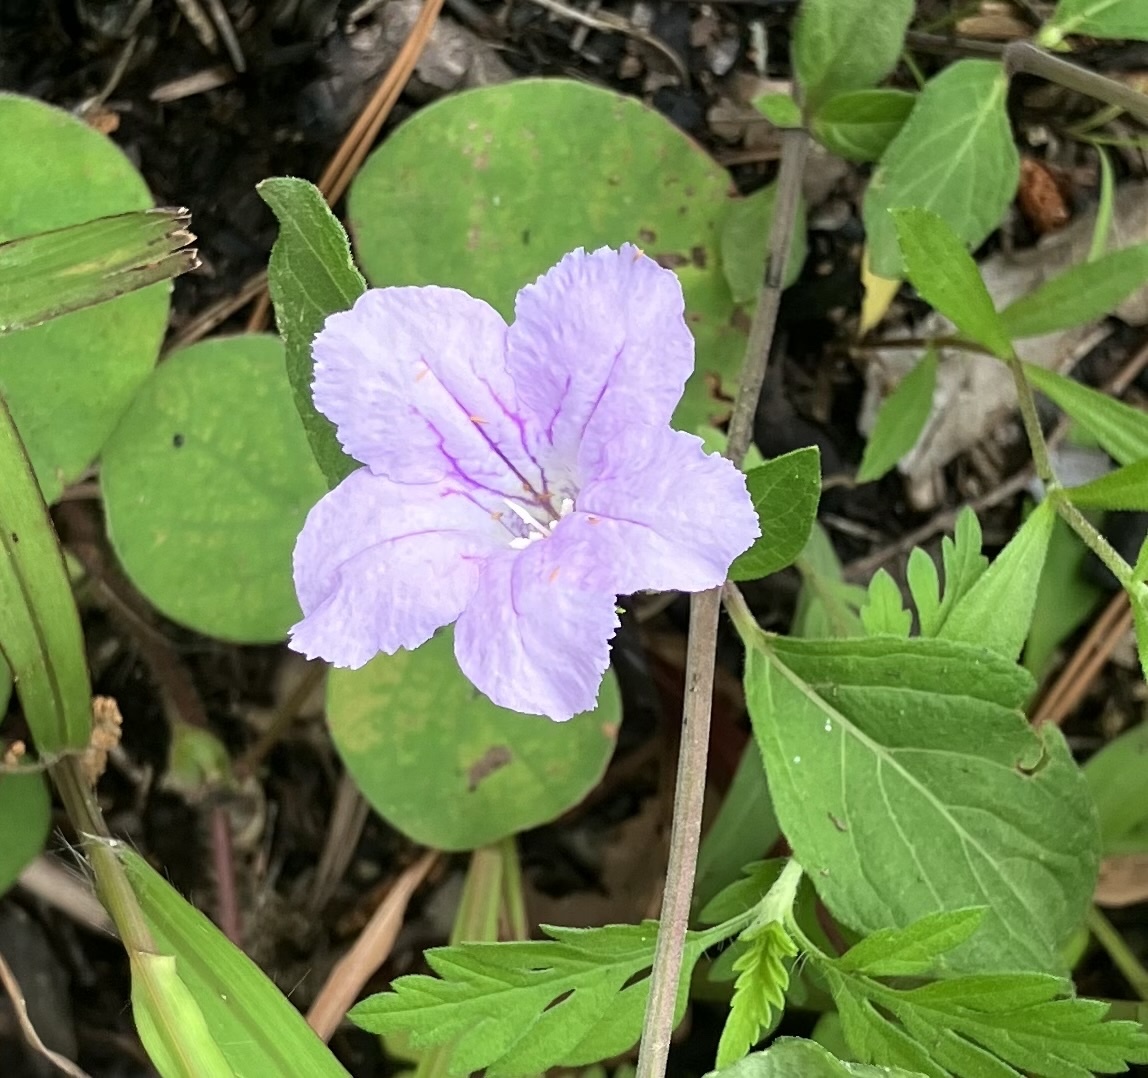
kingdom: Plantae
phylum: Tracheophyta
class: Magnoliopsida
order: Lamiales
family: Acanthaceae
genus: Ruellia
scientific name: Ruellia caroliniensis
